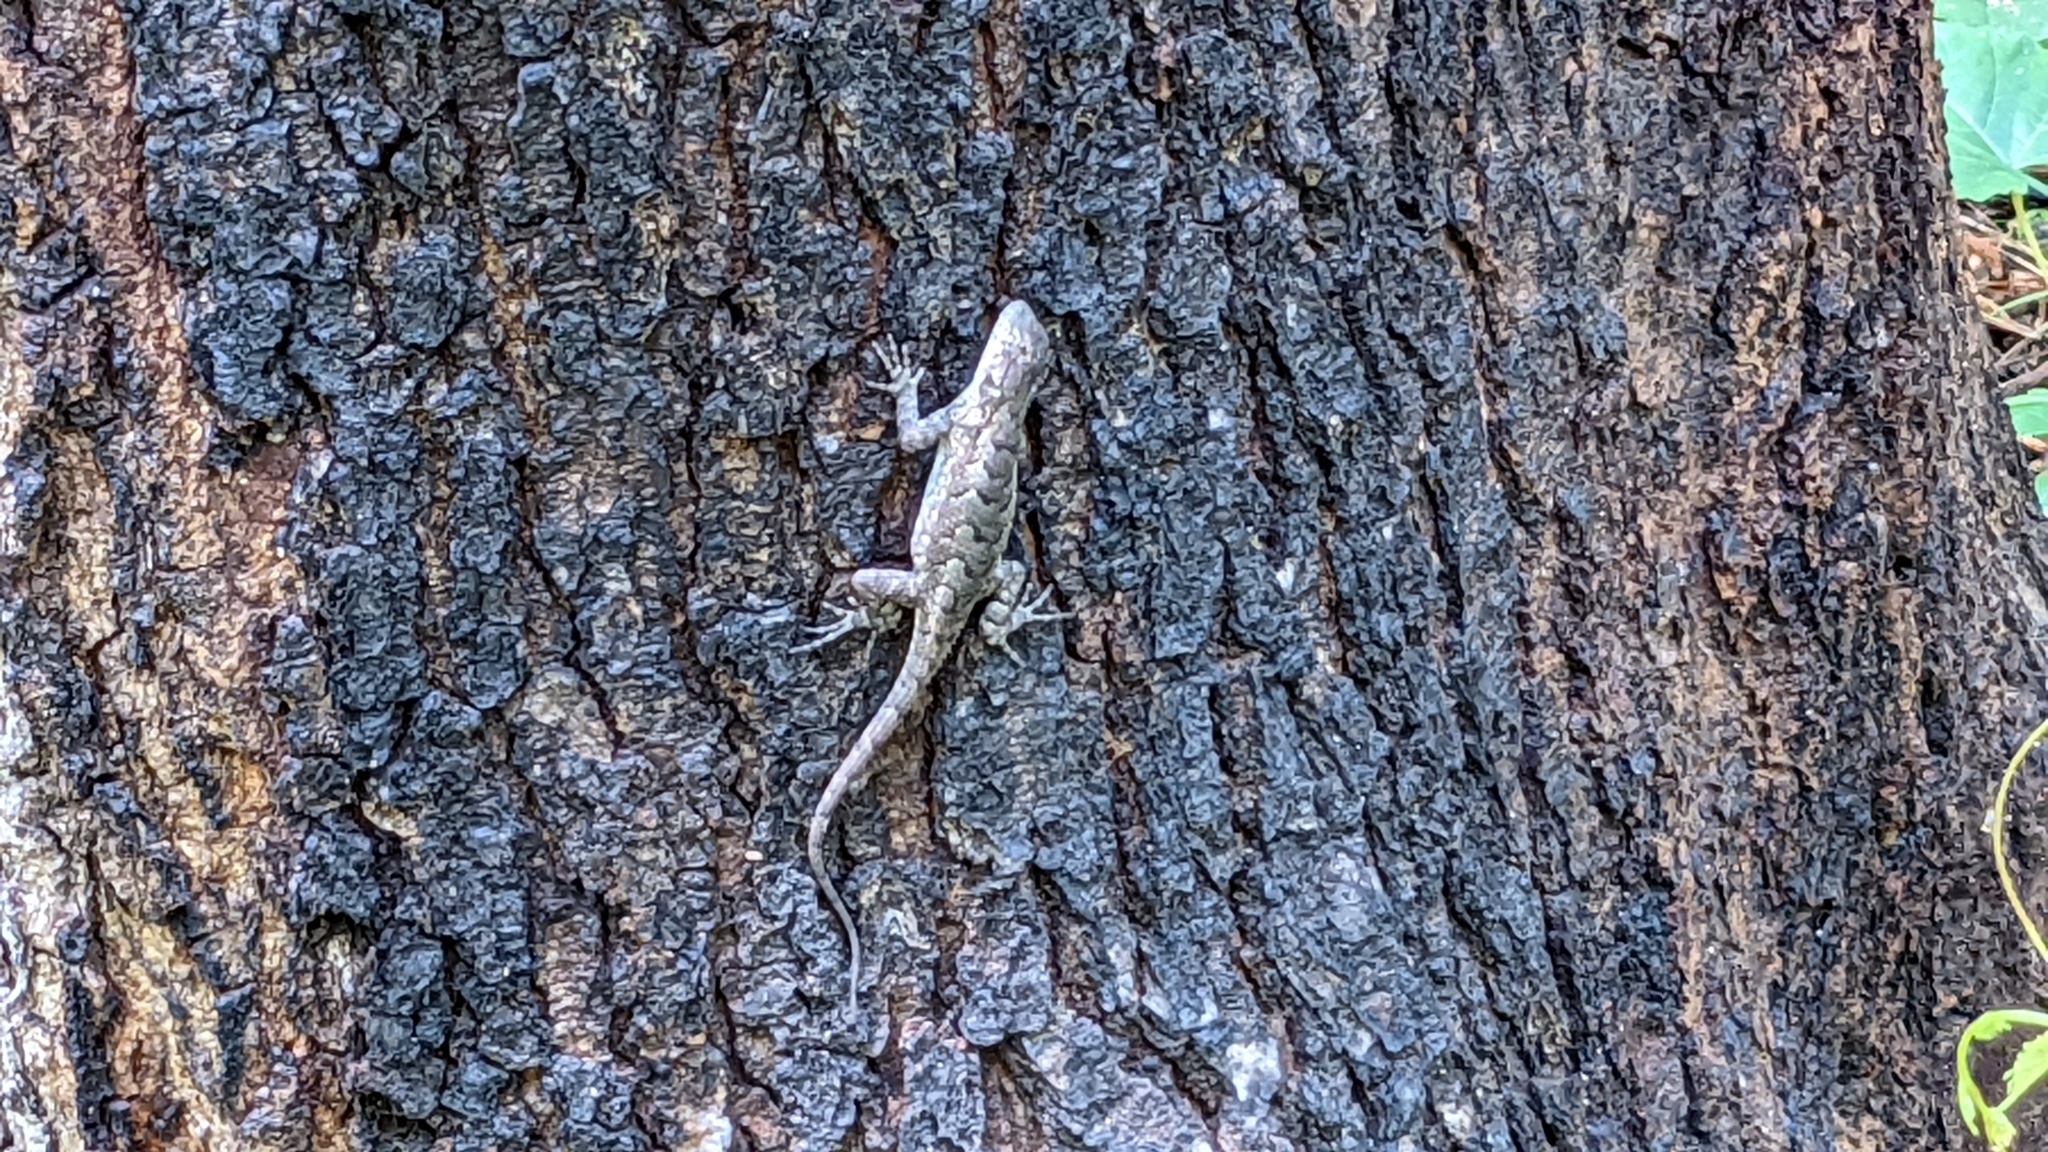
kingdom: Animalia
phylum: Chordata
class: Squamata
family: Phrynosomatidae
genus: Sceloporus
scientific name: Sceloporus consobrinus
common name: Southern prairie lizard
